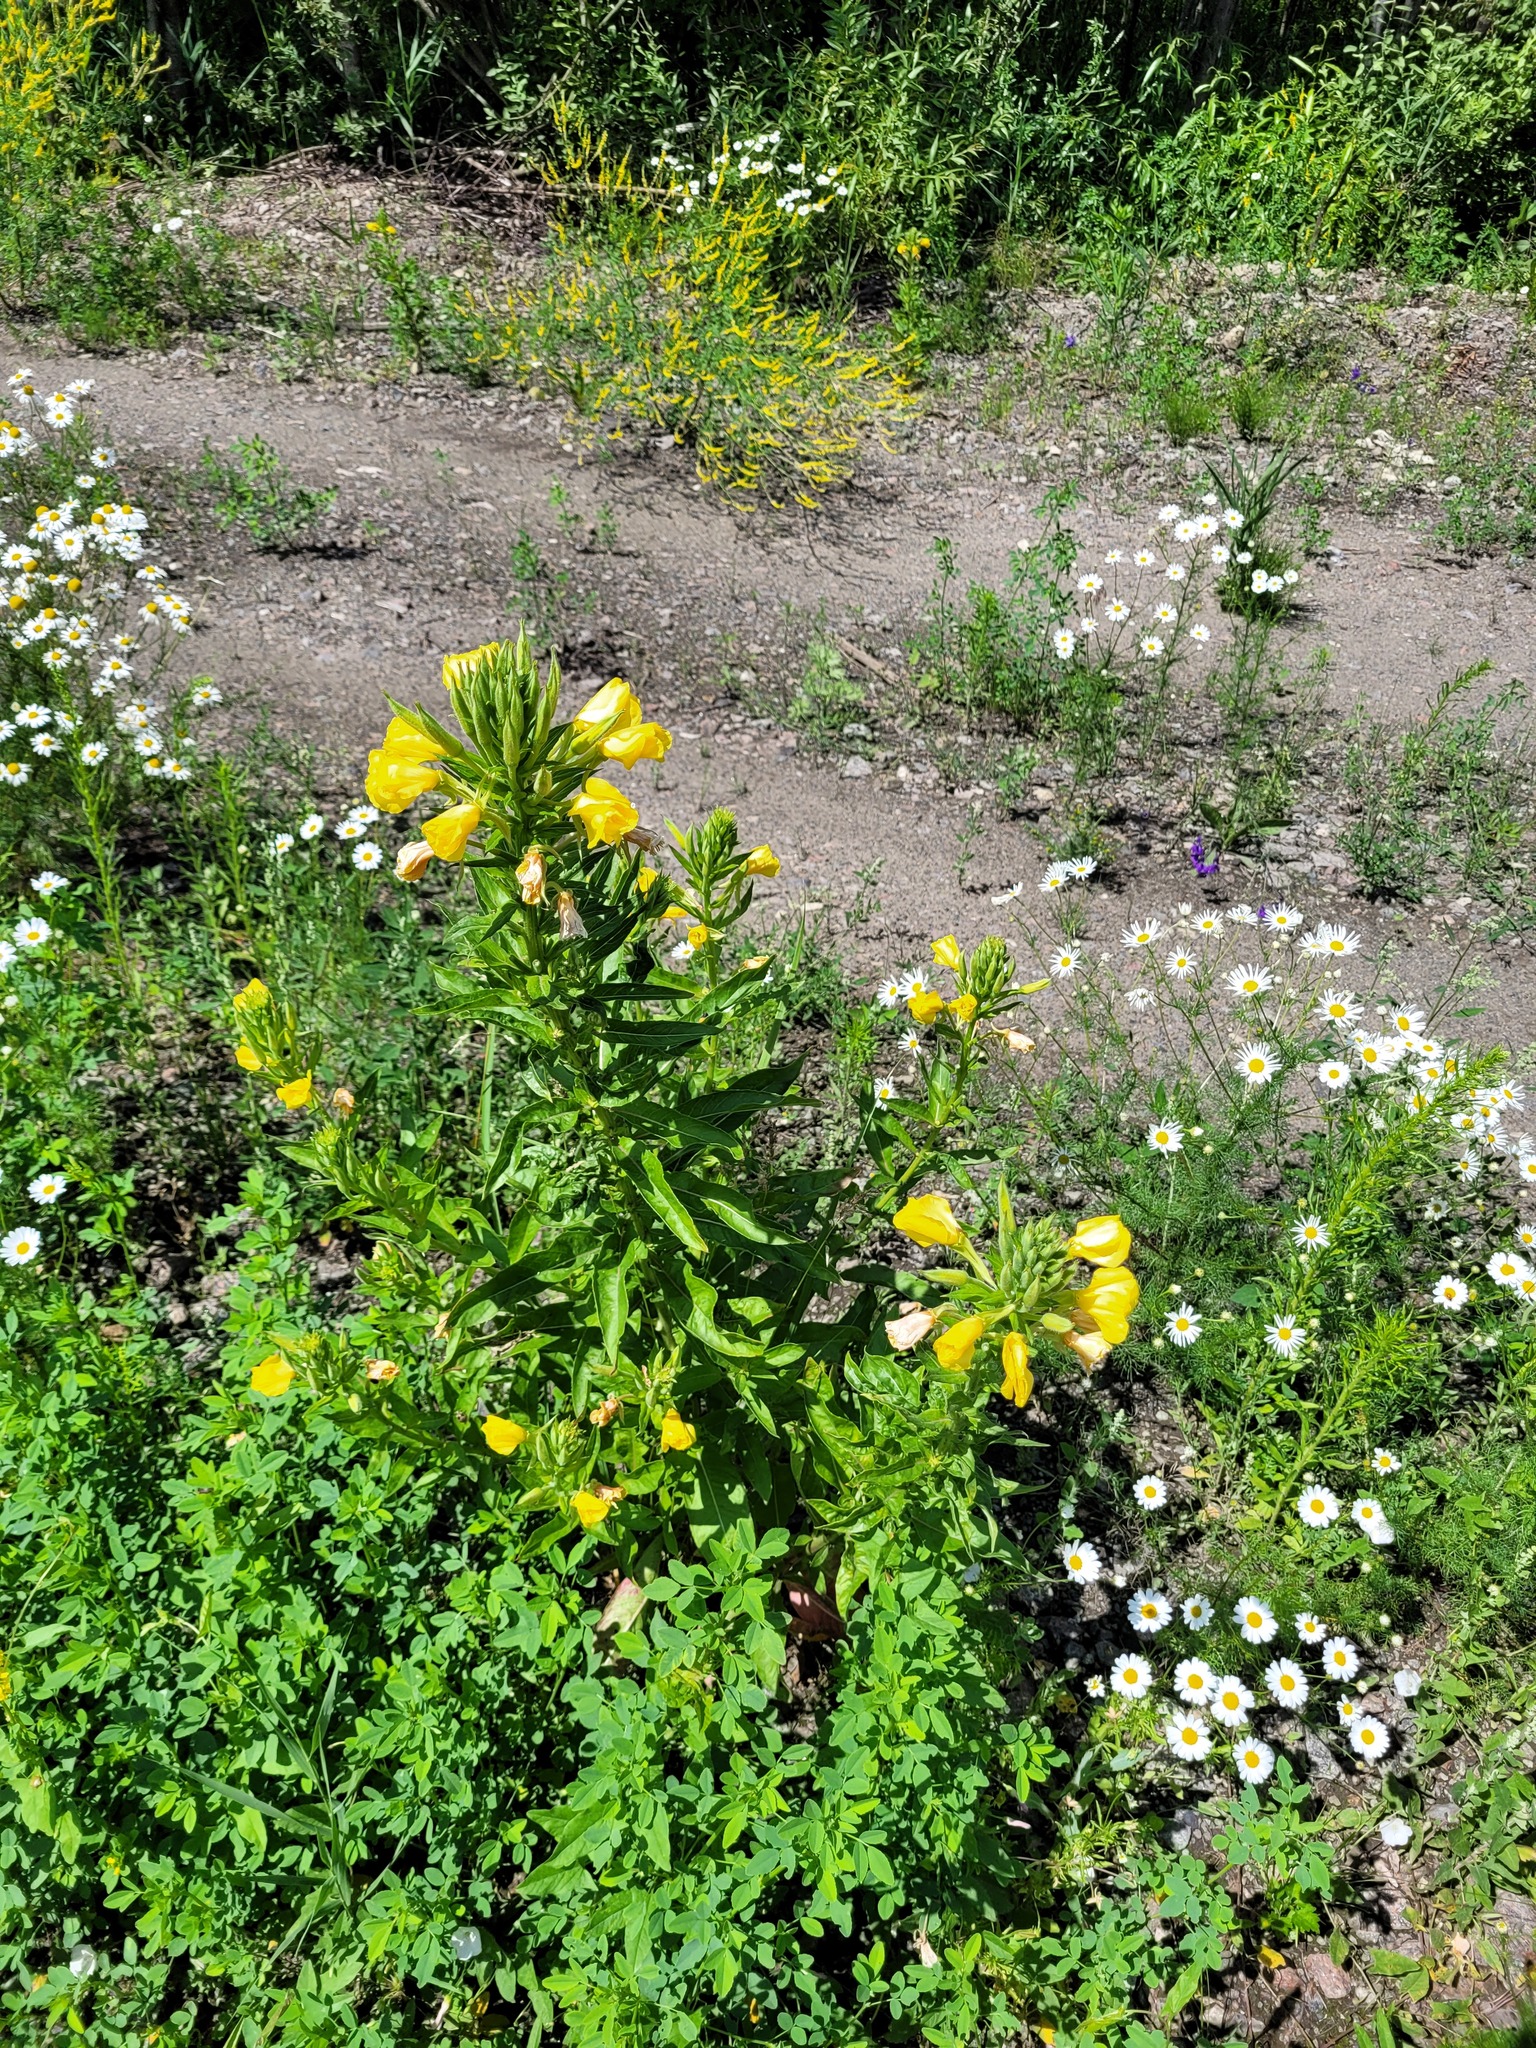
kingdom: Plantae
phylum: Tracheophyta
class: Magnoliopsida
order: Myrtales
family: Onagraceae
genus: Oenothera
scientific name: Oenothera biennis
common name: Common evening-primrose
